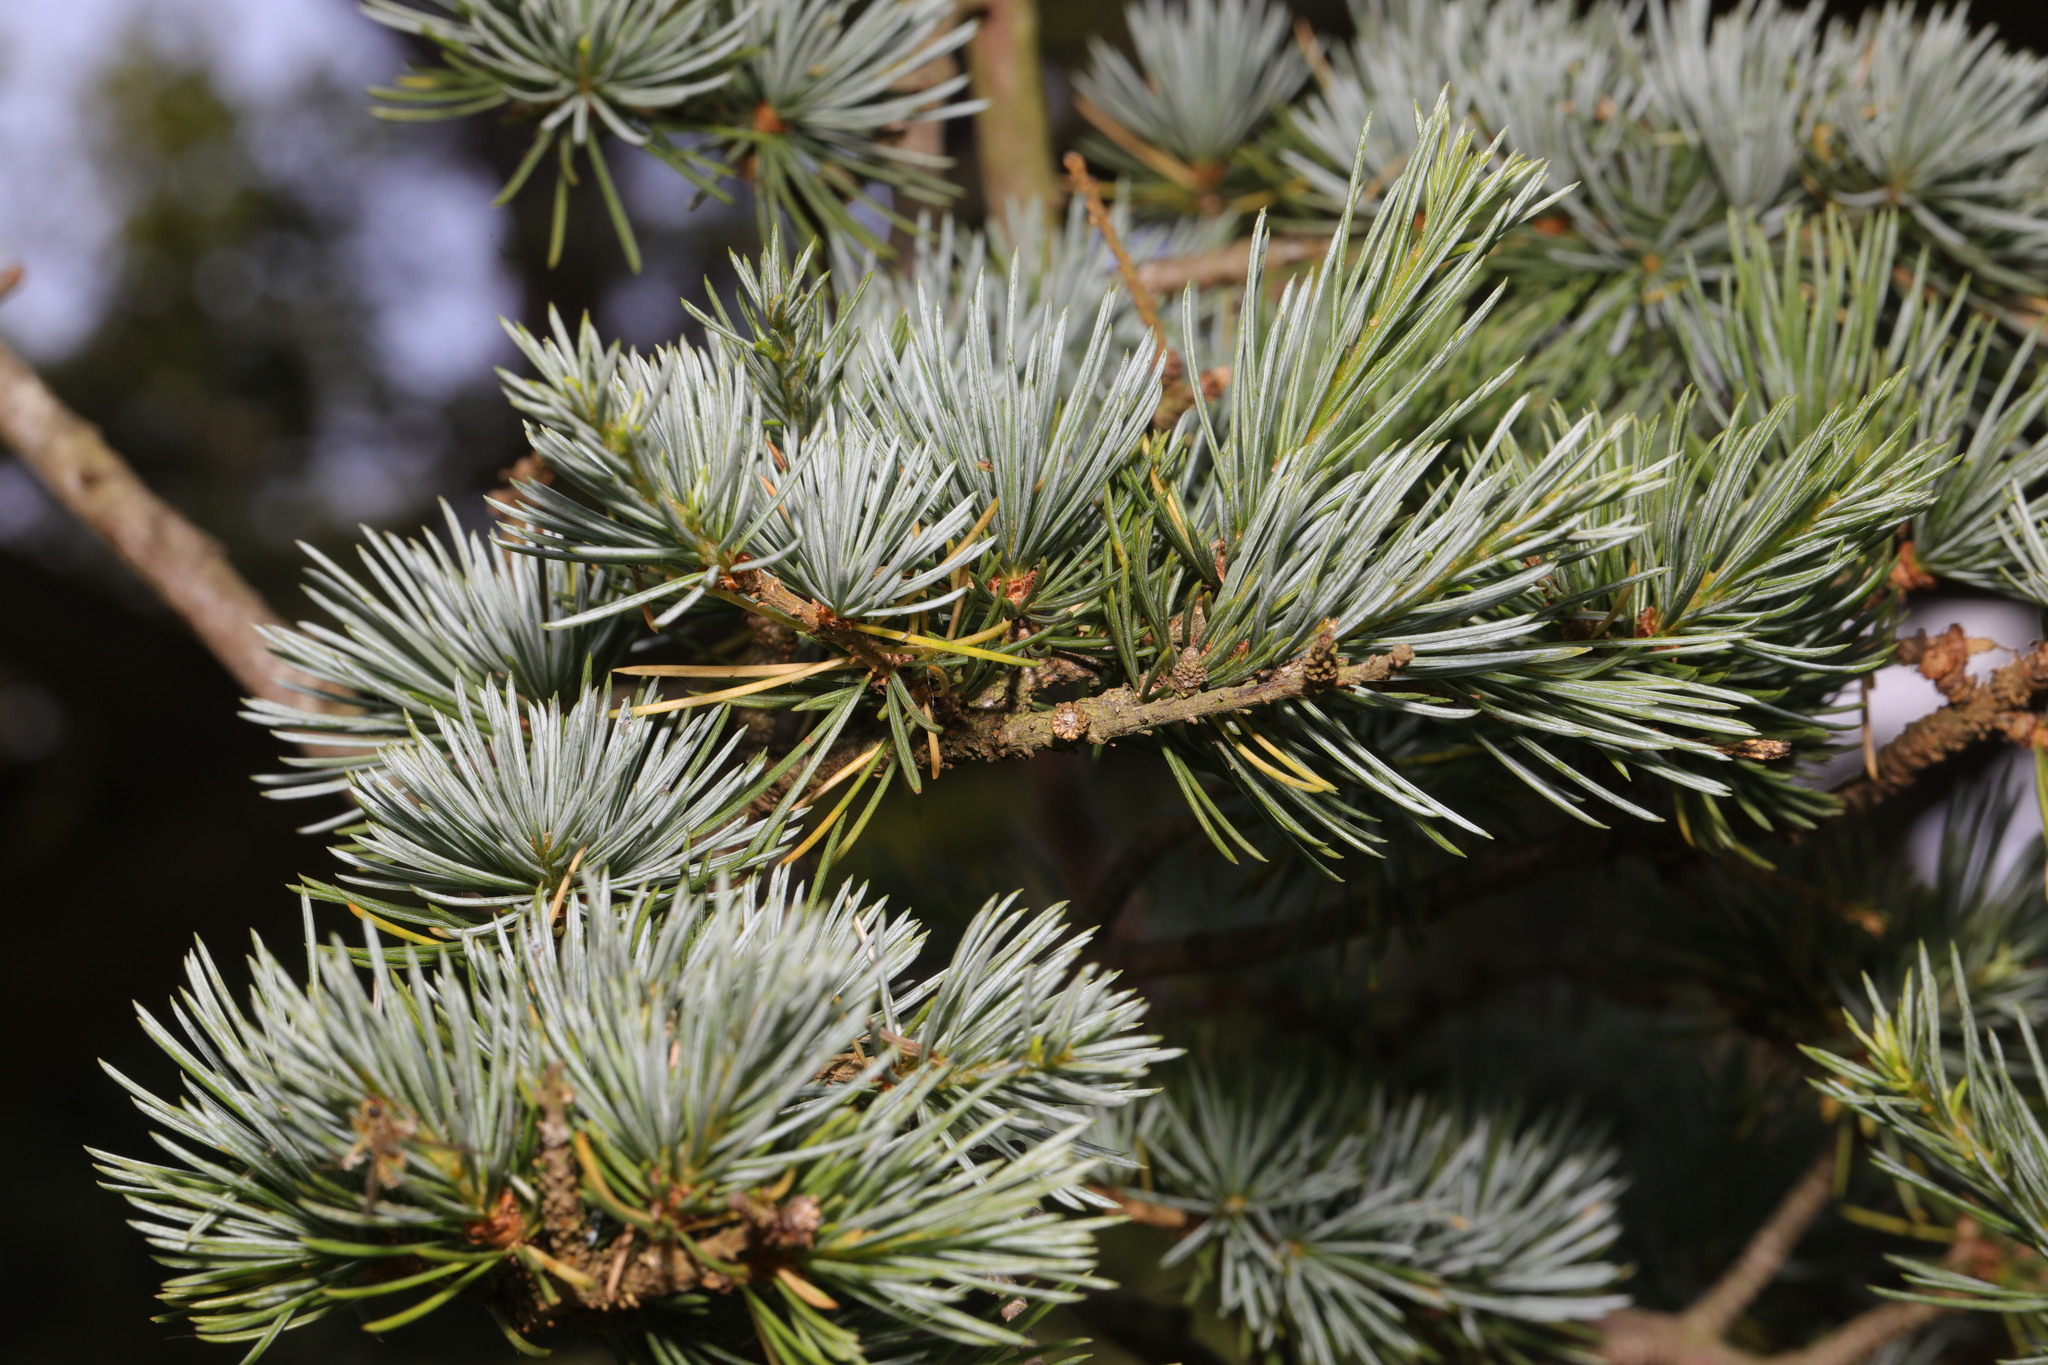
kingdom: Plantae
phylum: Tracheophyta
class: Pinopsida
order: Pinales
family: Pinaceae
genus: Cedrus
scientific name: Cedrus atlantica
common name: Atlas cedar
